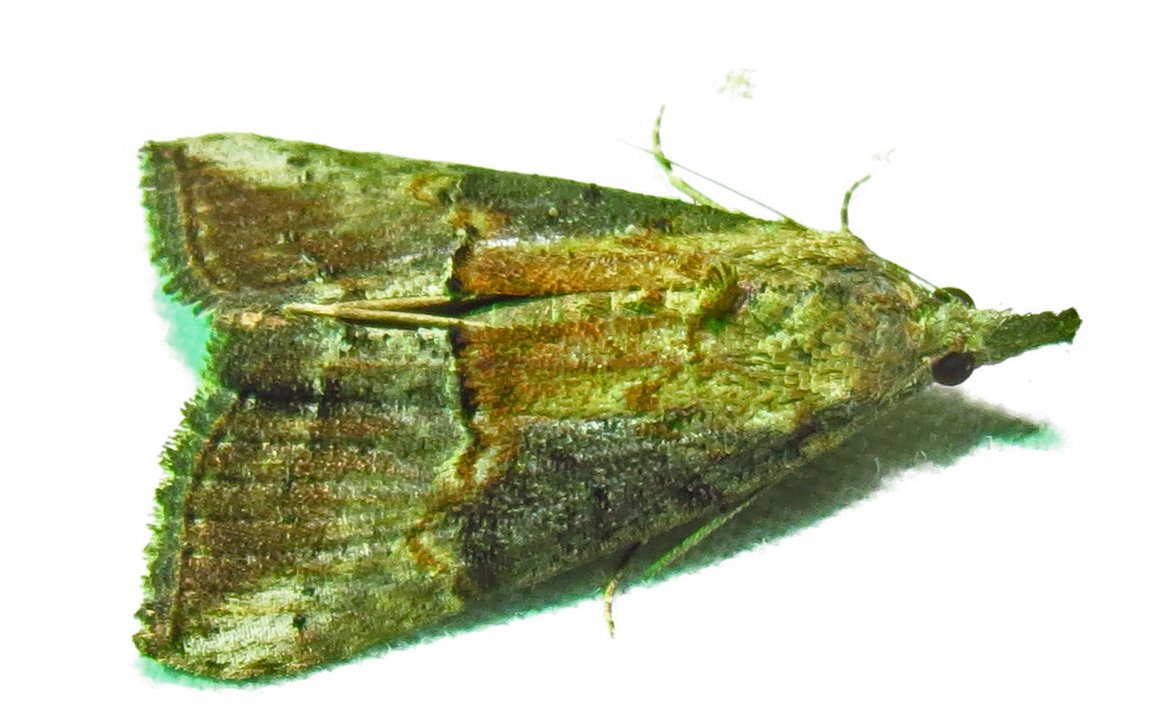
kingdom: Animalia
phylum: Arthropoda
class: Insecta
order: Lepidoptera
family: Erebidae
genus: Hypena
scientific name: Hypena scabra
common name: Green cloverworm
